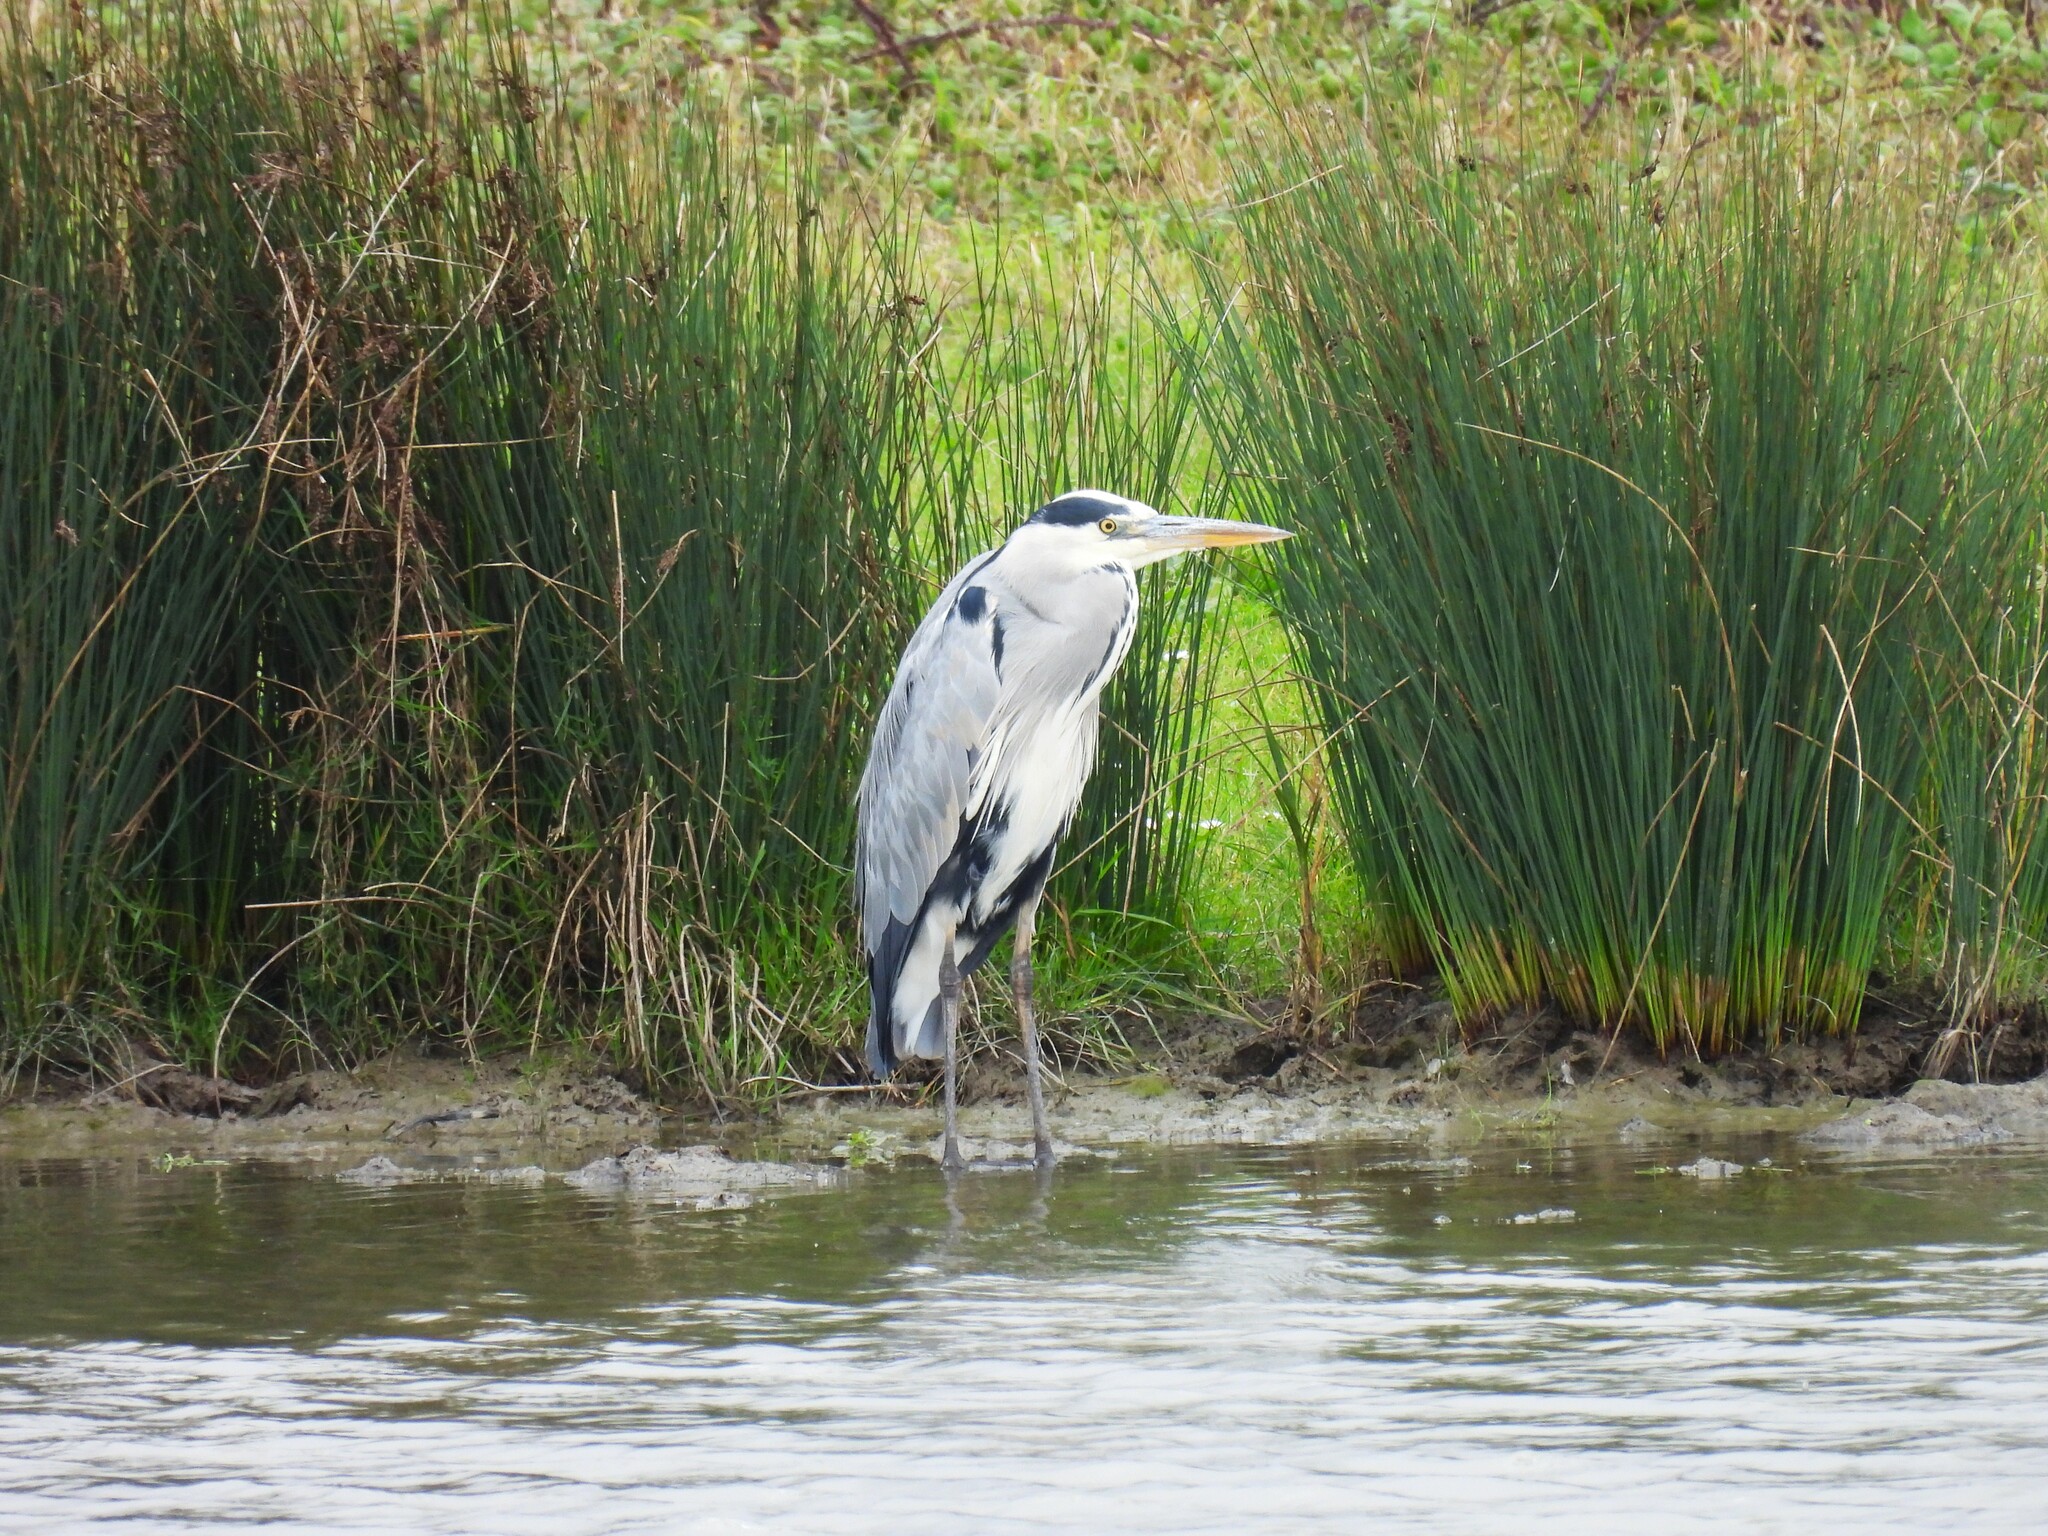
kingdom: Animalia
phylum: Chordata
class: Aves
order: Pelecaniformes
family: Ardeidae
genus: Ardea
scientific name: Ardea cinerea
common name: Grey heron
